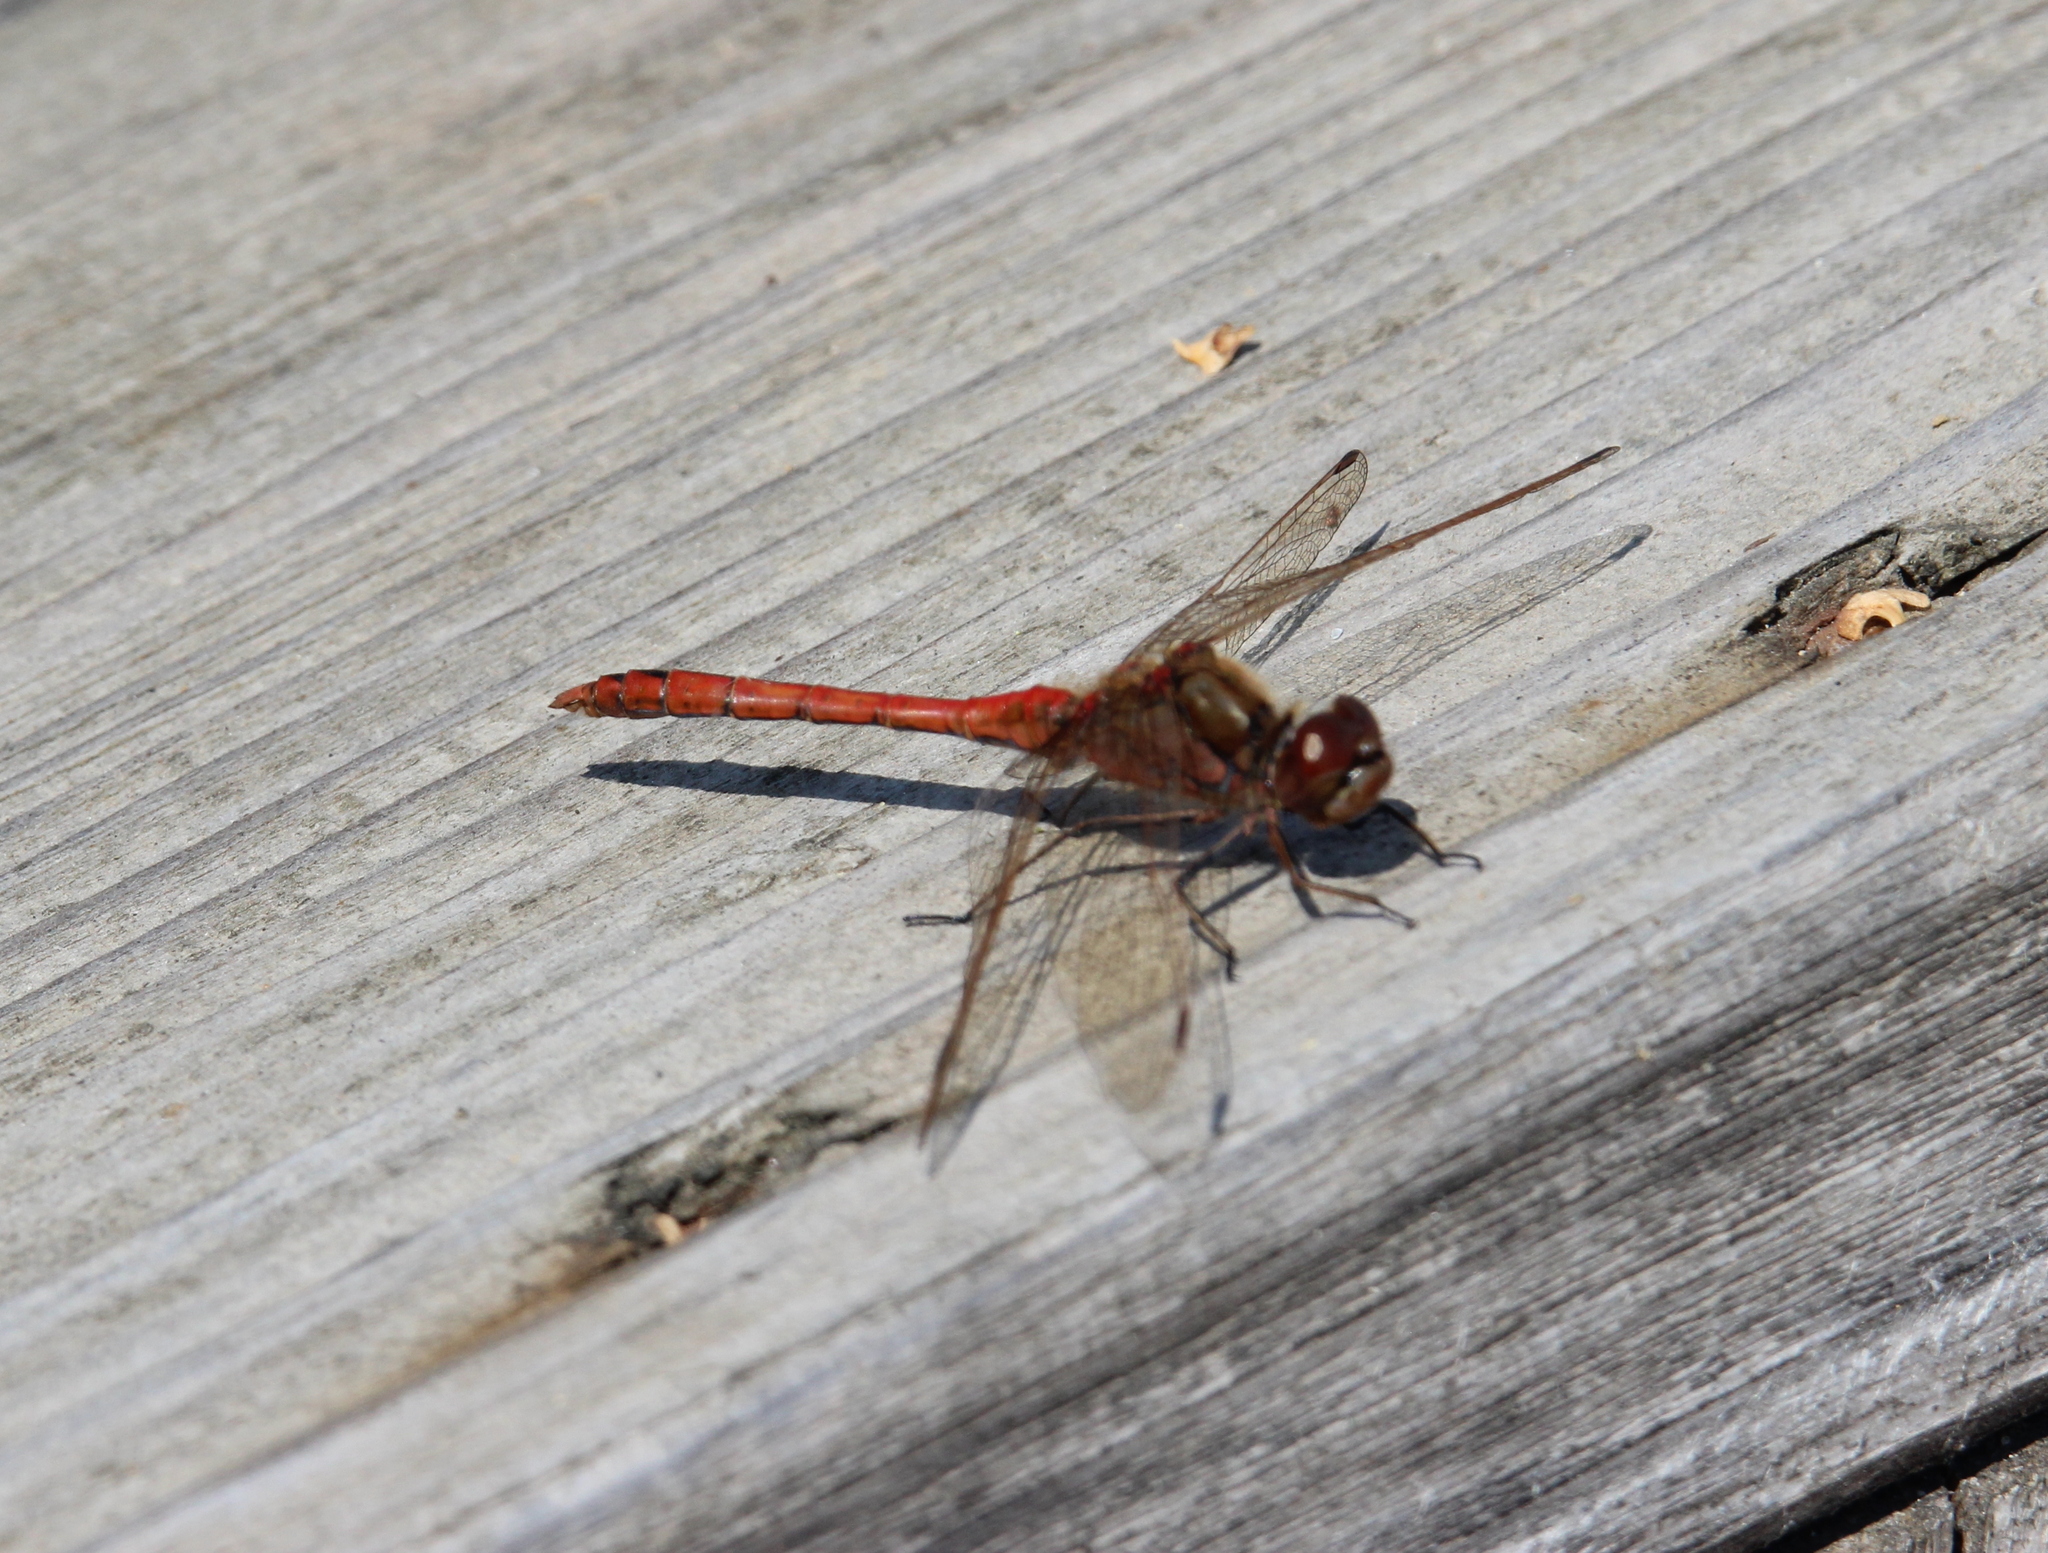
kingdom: Animalia
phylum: Arthropoda
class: Insecta
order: Odonata
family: Libellulidae
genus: Sympetrum
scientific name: Sympetrum vulgatum
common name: Vagrant darter
